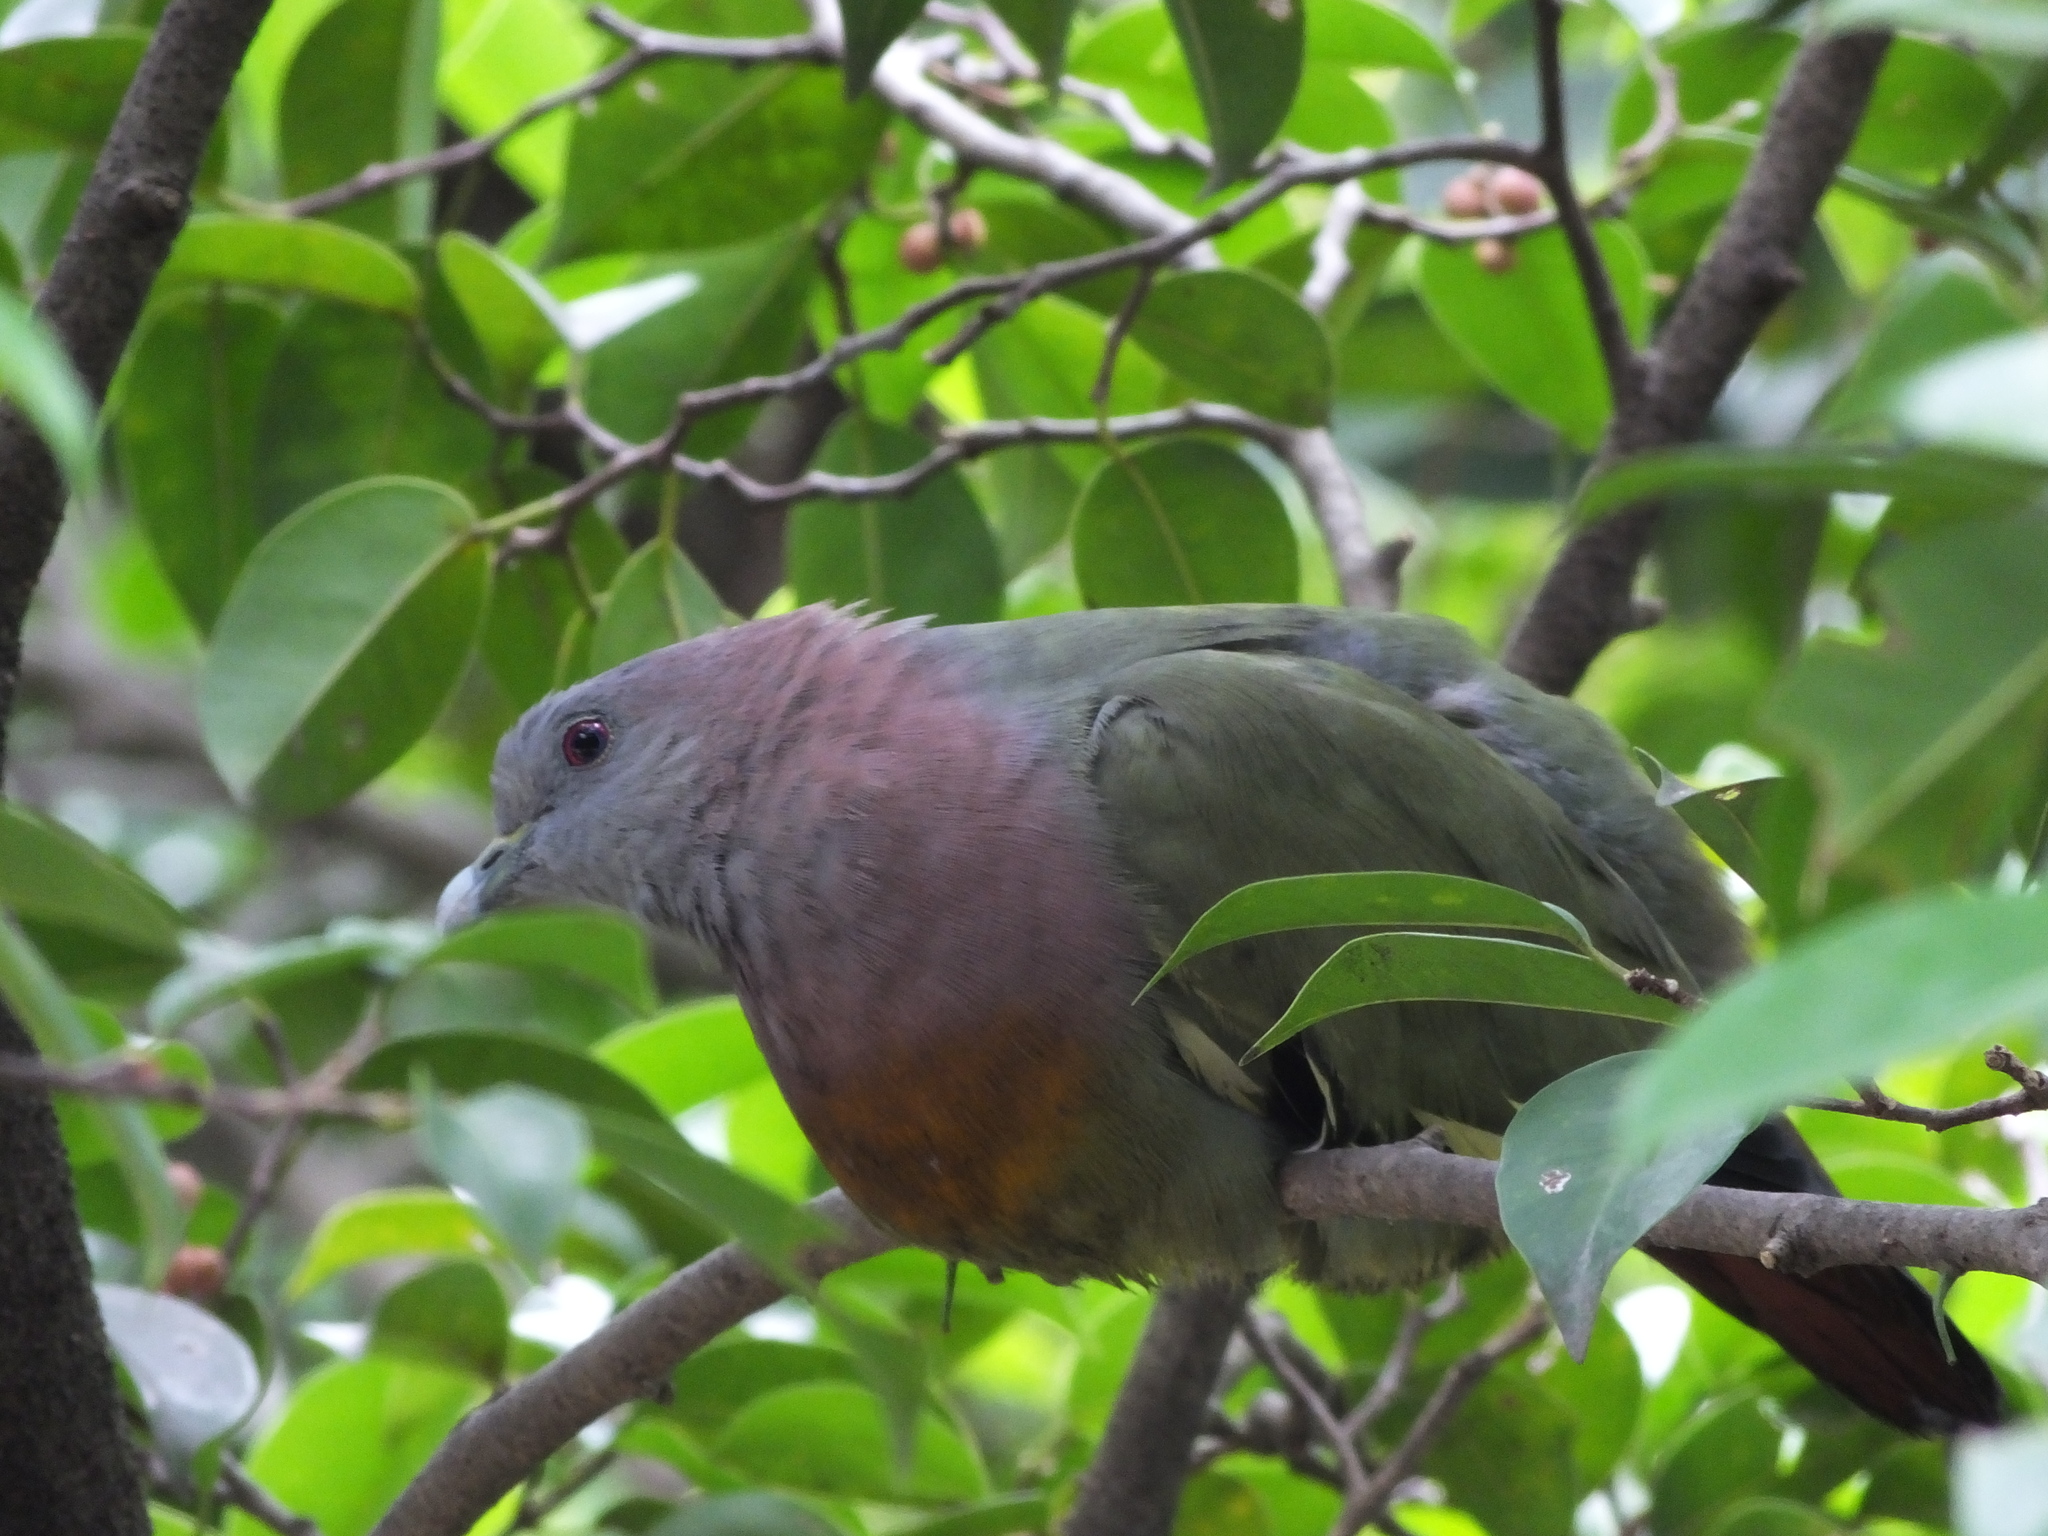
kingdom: Animalia
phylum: Chordata
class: Aves
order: Columbiformes
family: Columbidae
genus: Treron
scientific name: Treron vernans
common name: Pink-necked green pigeon
